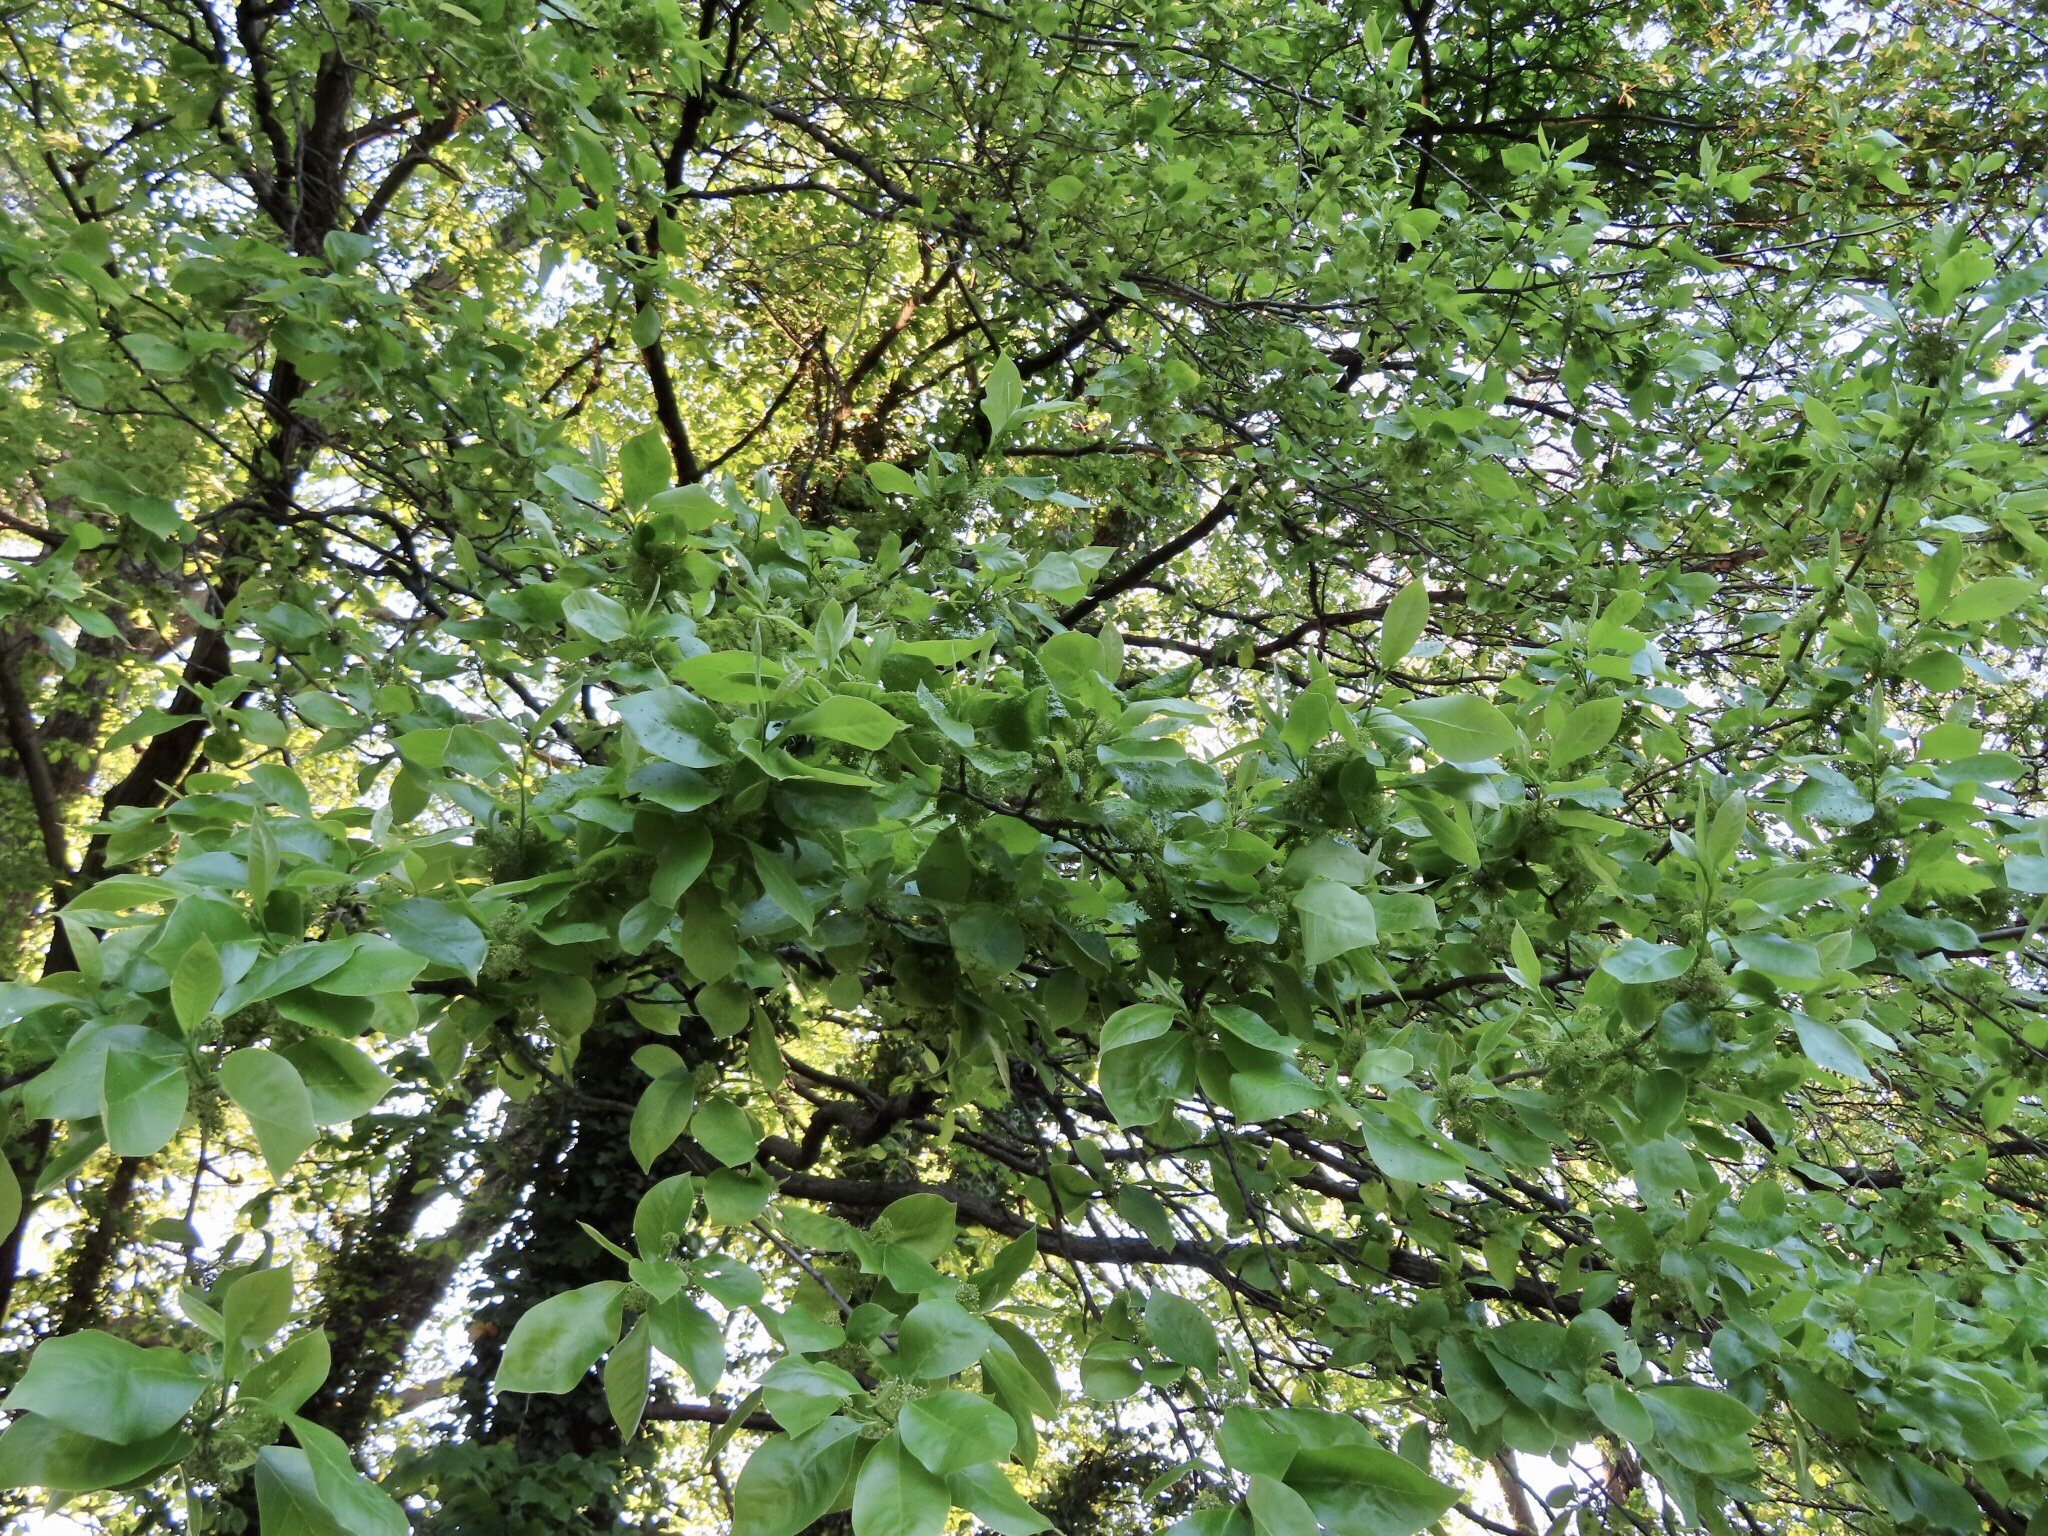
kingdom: Animalia
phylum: Arthropoda
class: Arachnida
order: Trombidiformes
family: Eriophyidae
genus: Aceria
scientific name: Aceria
